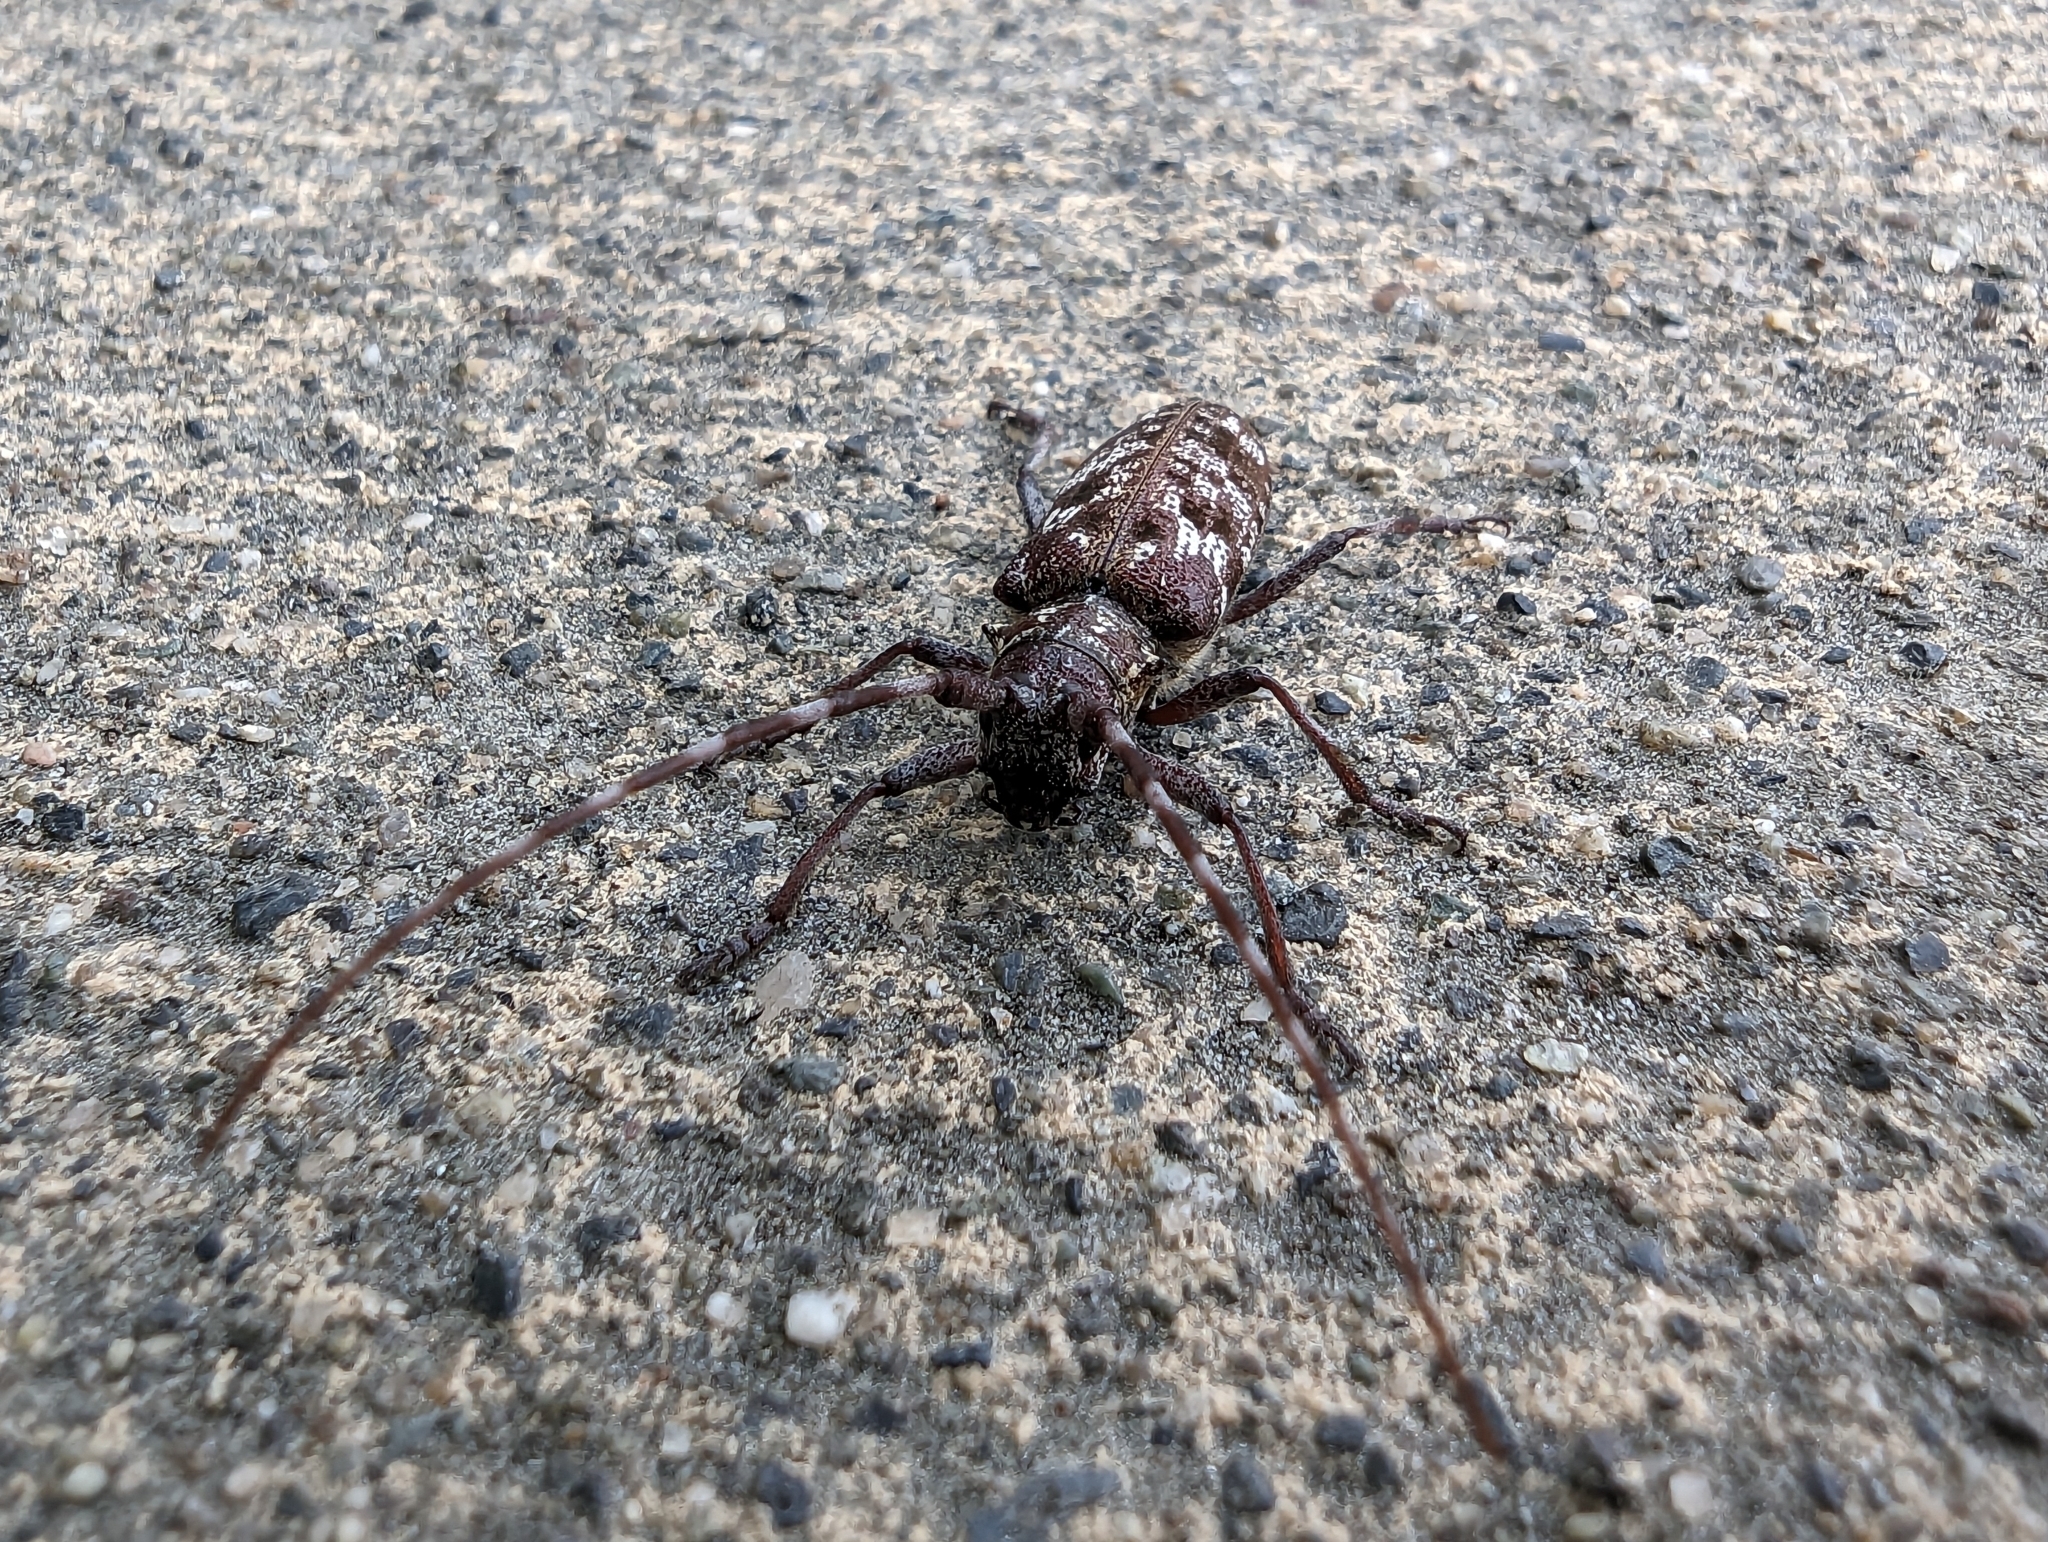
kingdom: Animalia
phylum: Arthropoda
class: Insecta
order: Coleoptera
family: Cerambycidae
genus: Monochamus
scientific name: Monochamus obtusus
